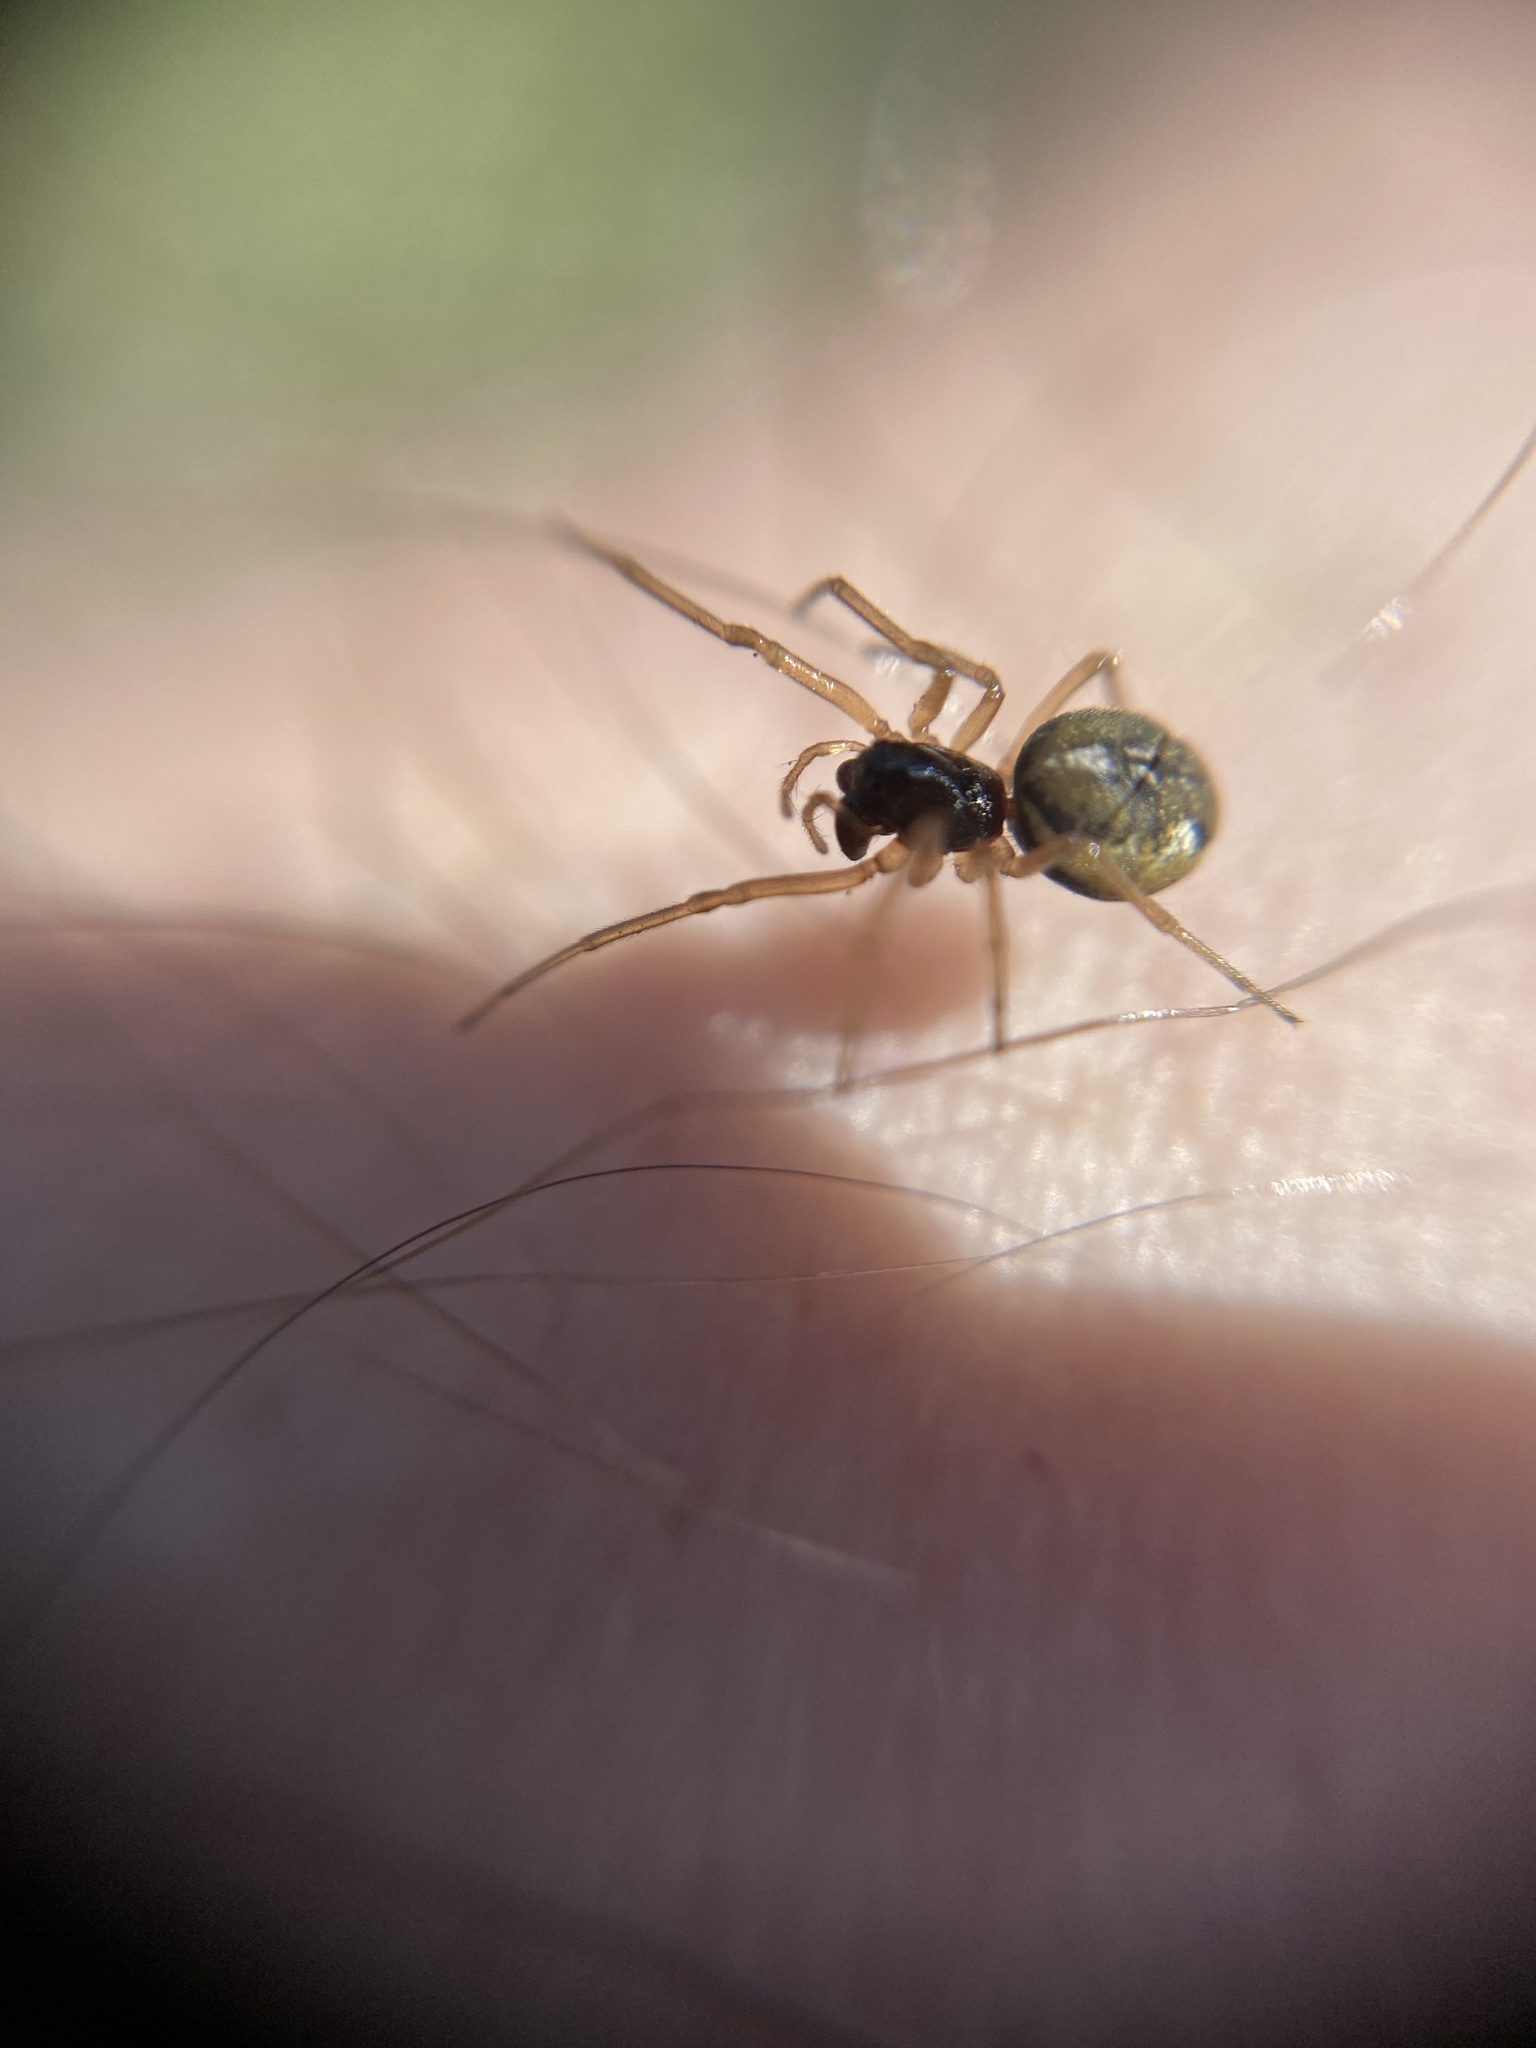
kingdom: Animalia
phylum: Arthropoda
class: Arachnida
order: Araneae
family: Tetragnathidae
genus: Pachygnatha
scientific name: Pachygnatha degeeri
